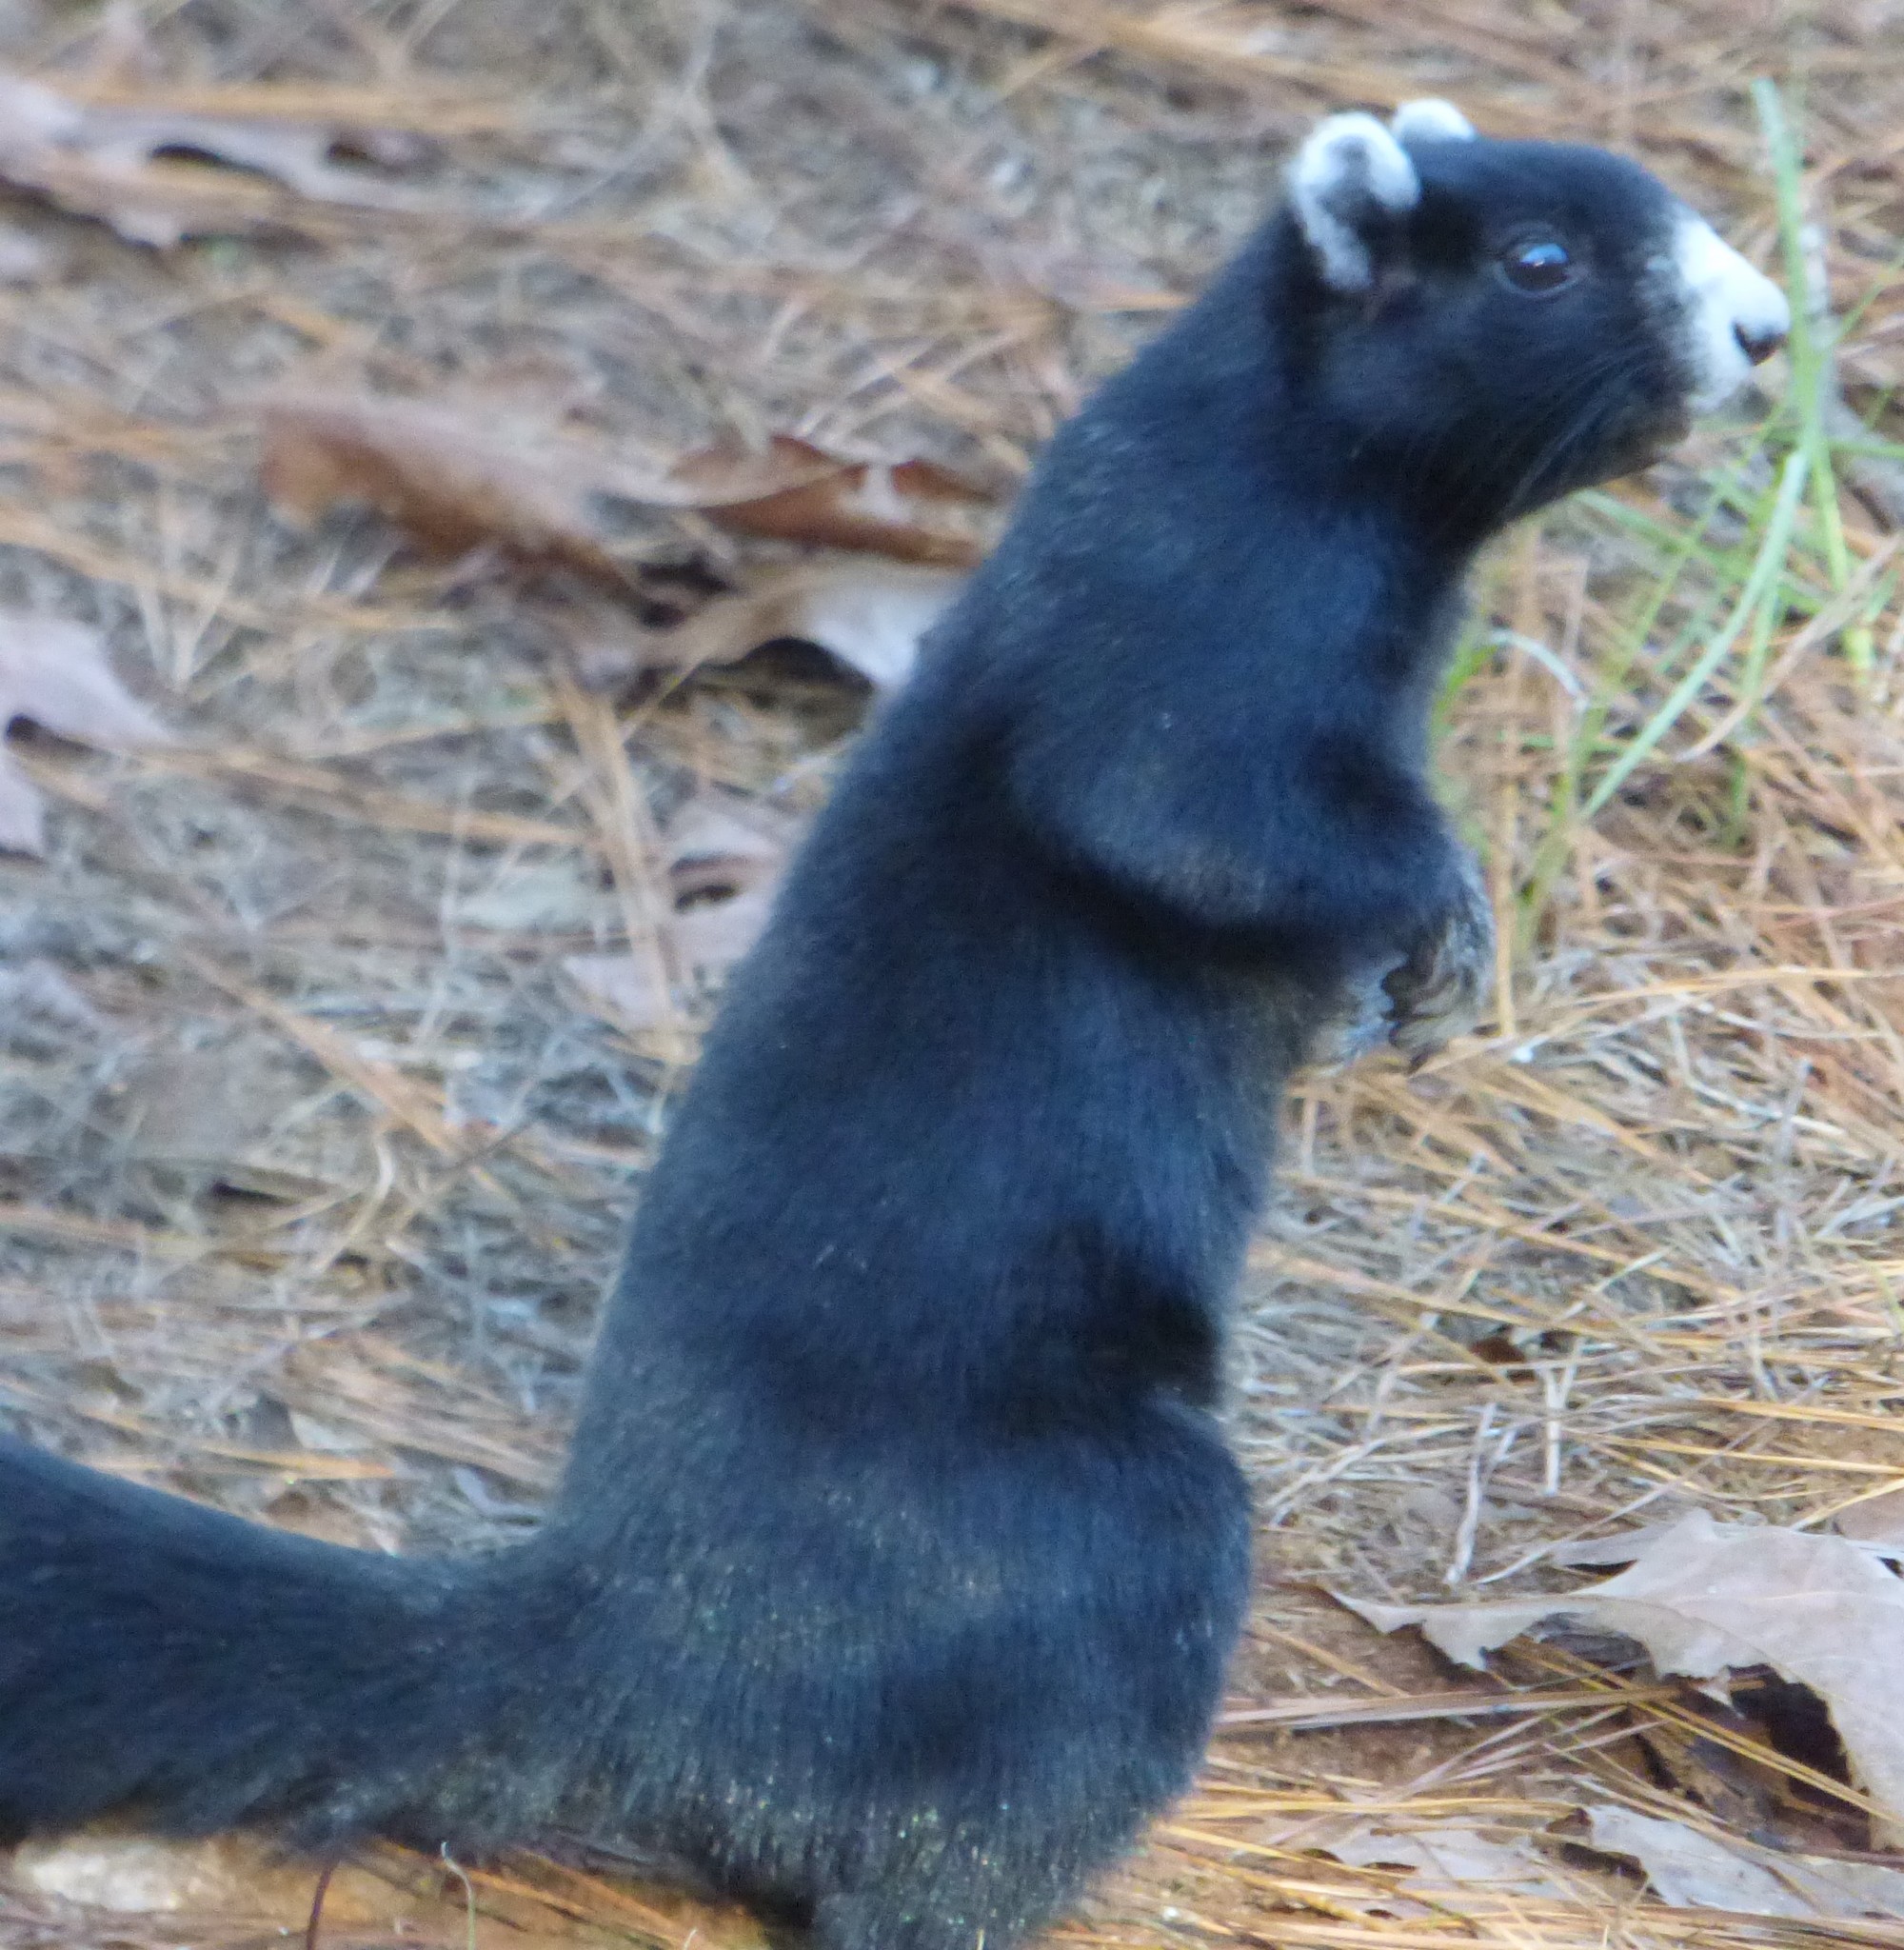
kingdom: Animalia
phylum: Chordata
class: Mammalia
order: Rodentia
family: Sciuridae
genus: Sciurus
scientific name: Sciurus niger
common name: Fox squirrel
